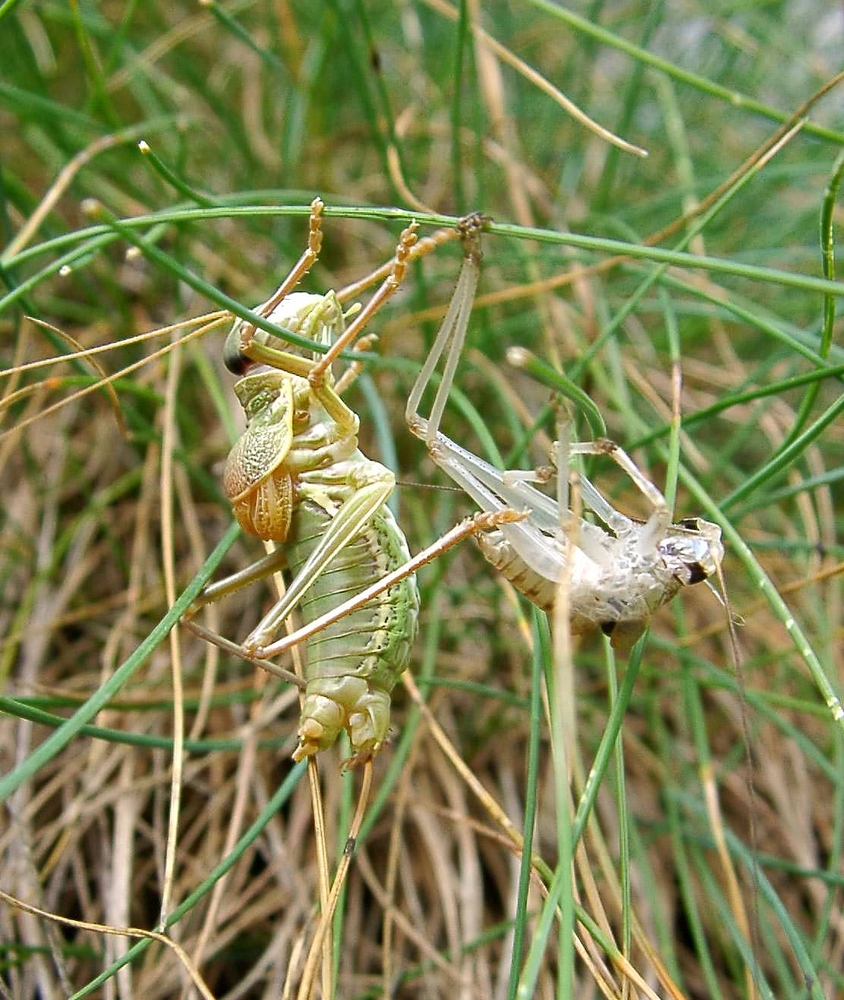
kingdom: Animalia
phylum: Arthropoda
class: Insecta
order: Orthoptera
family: Tettigoniidae
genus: Ephippiger
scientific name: Ephippiger terrestris
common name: Alpine saddle-backed bush-cricket
